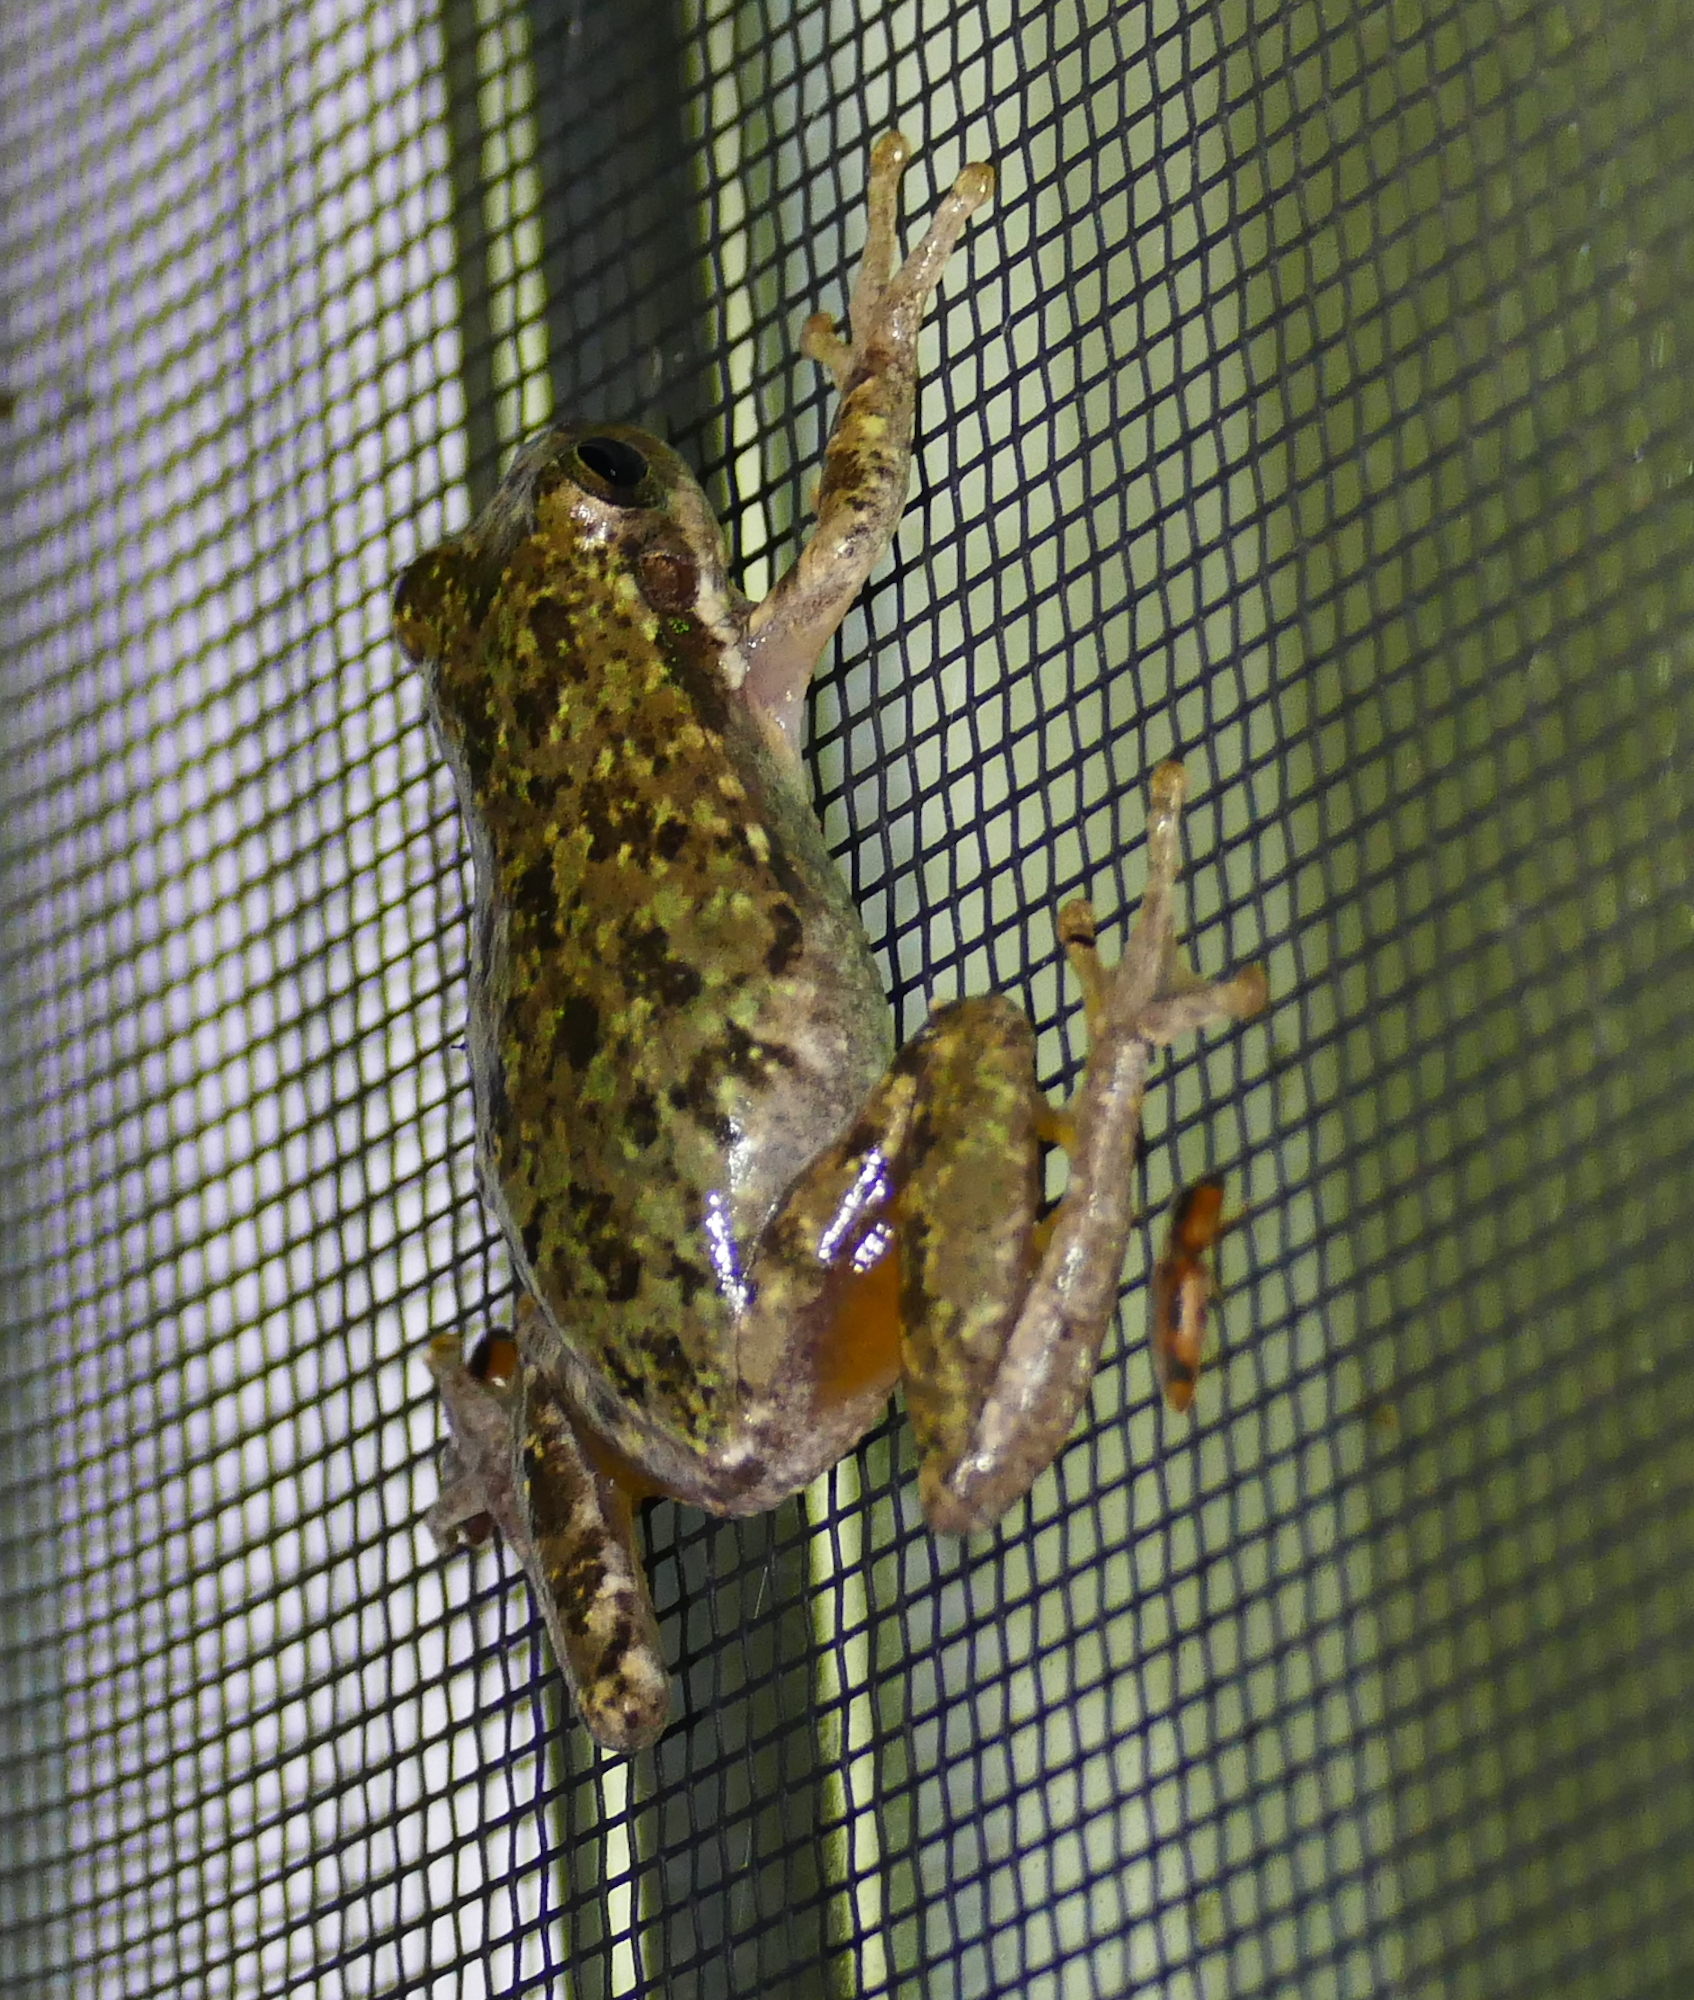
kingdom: Animalia
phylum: Chordata
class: Amphibia
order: Anura
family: Hylidae
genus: Dryophytes
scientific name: Dryophytes squirellus
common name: Squirrel treefrog
